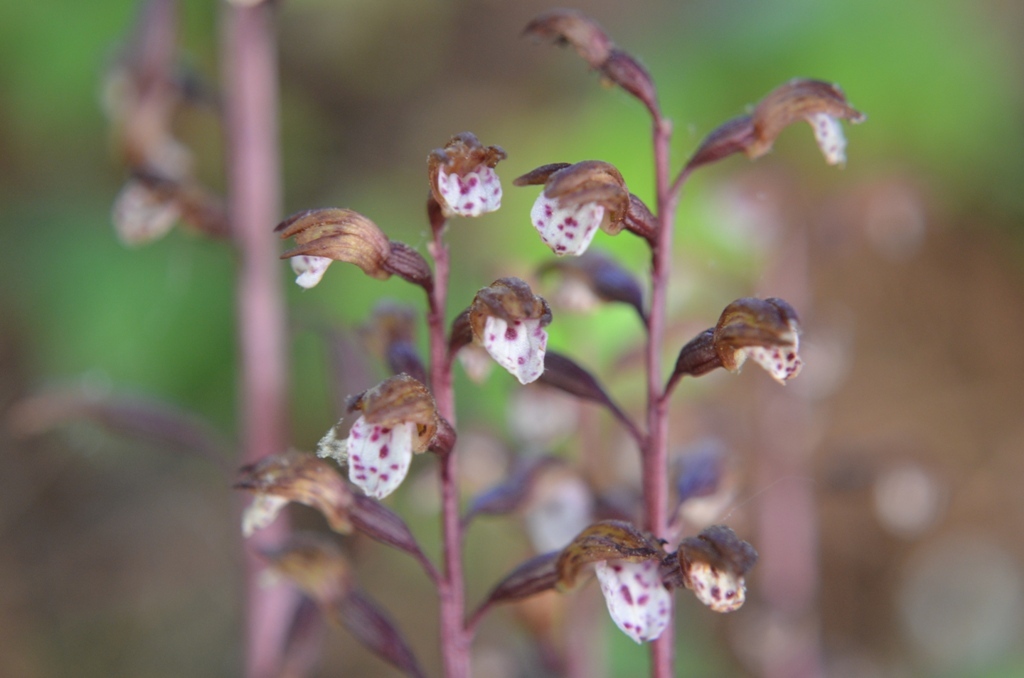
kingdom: Plantae
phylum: Tracheophyta
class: Liliopsida
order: Asparagales
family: Orchidaceae
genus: Corallorhiza
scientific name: Corallorhiza wisteriana
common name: Spring coralroot
